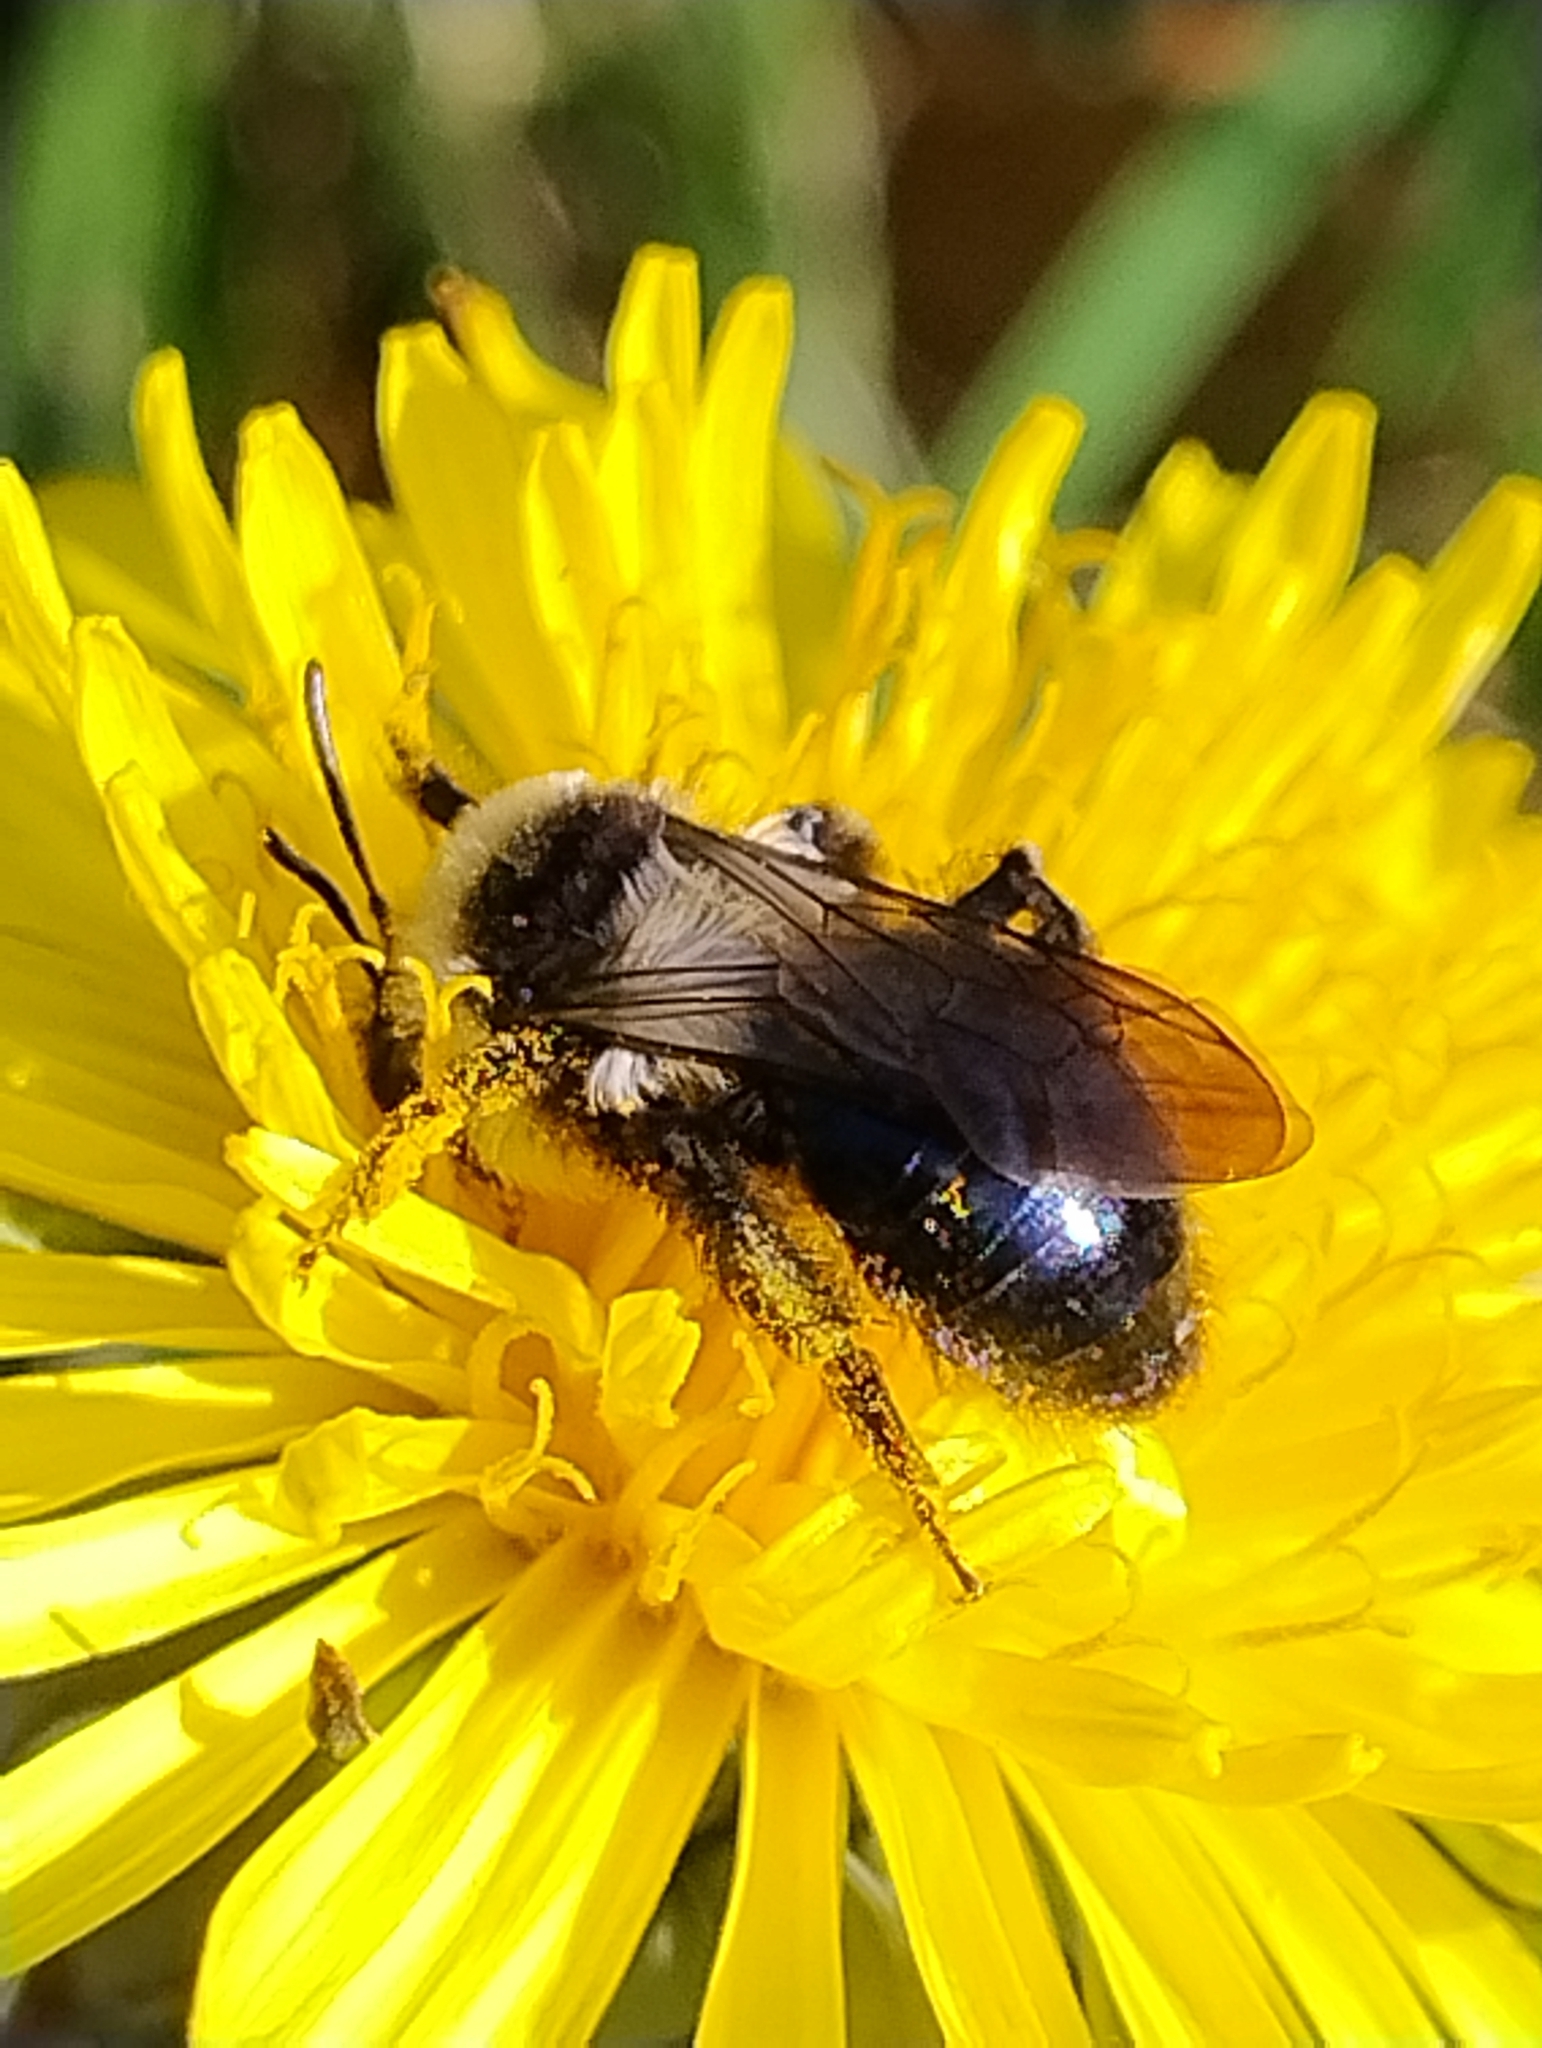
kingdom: Animalia
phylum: Arthropoda
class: Insecta
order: Hymenoptera
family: Andrenidae
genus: Andrena
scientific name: Andrena cineraria
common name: Ashy mining bee
